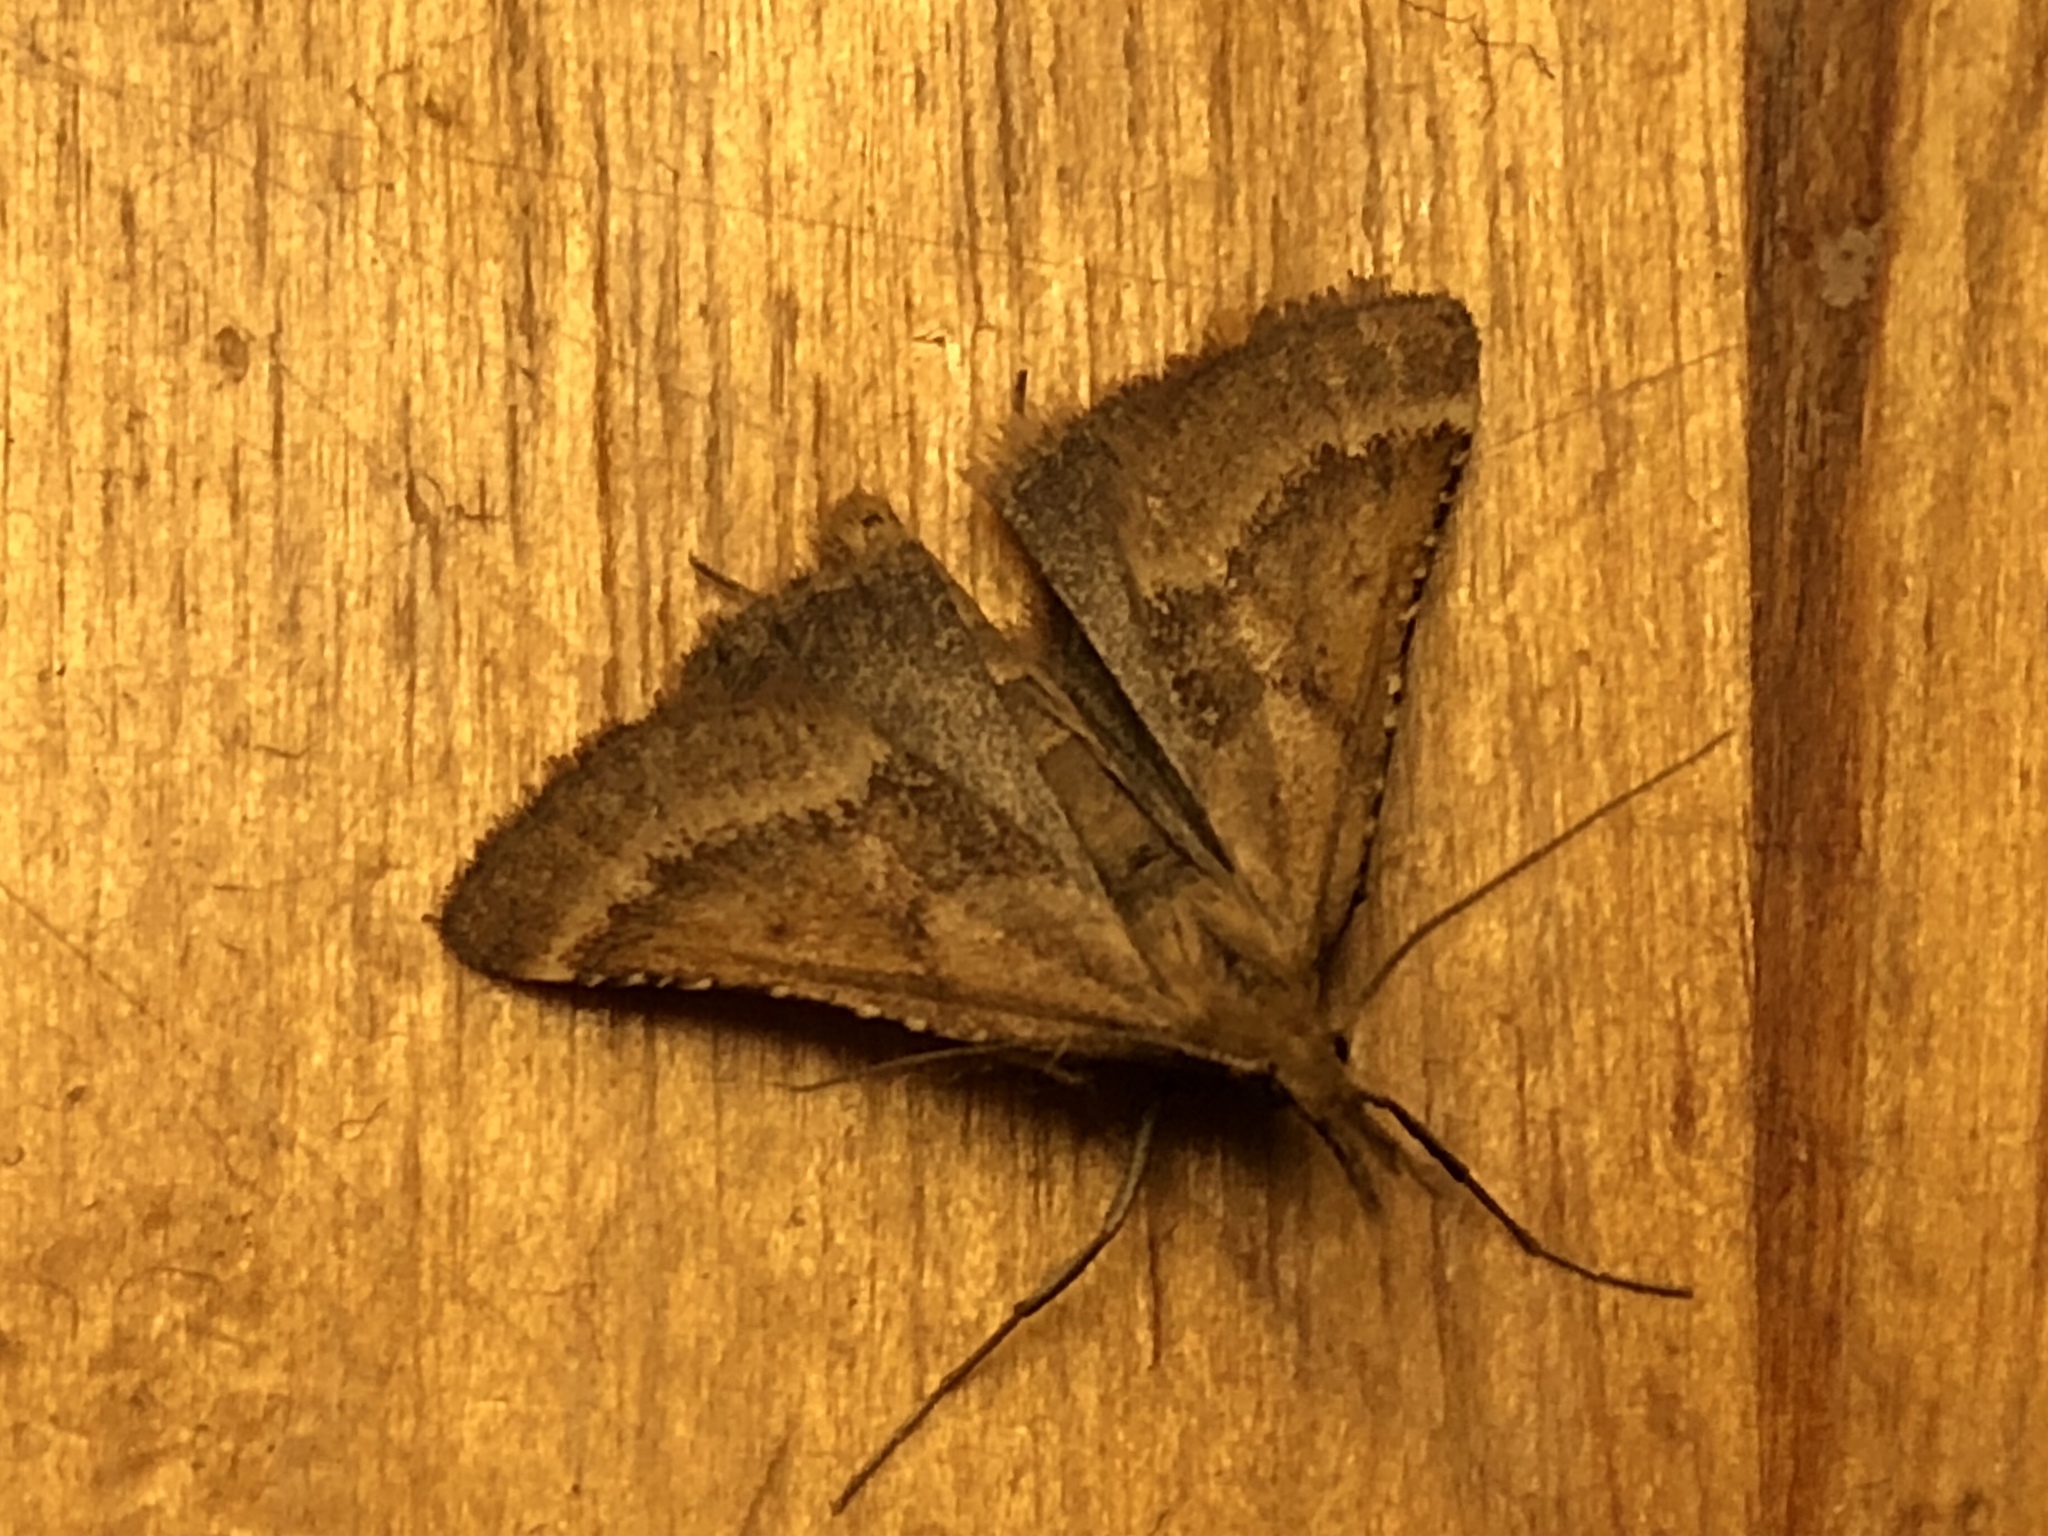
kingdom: Animalia
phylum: Arthropoda
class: Insecta
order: Lepidoptera
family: Pyralidae
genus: Synaphe
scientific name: Synaphe punctalis
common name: Long-legged tabby
